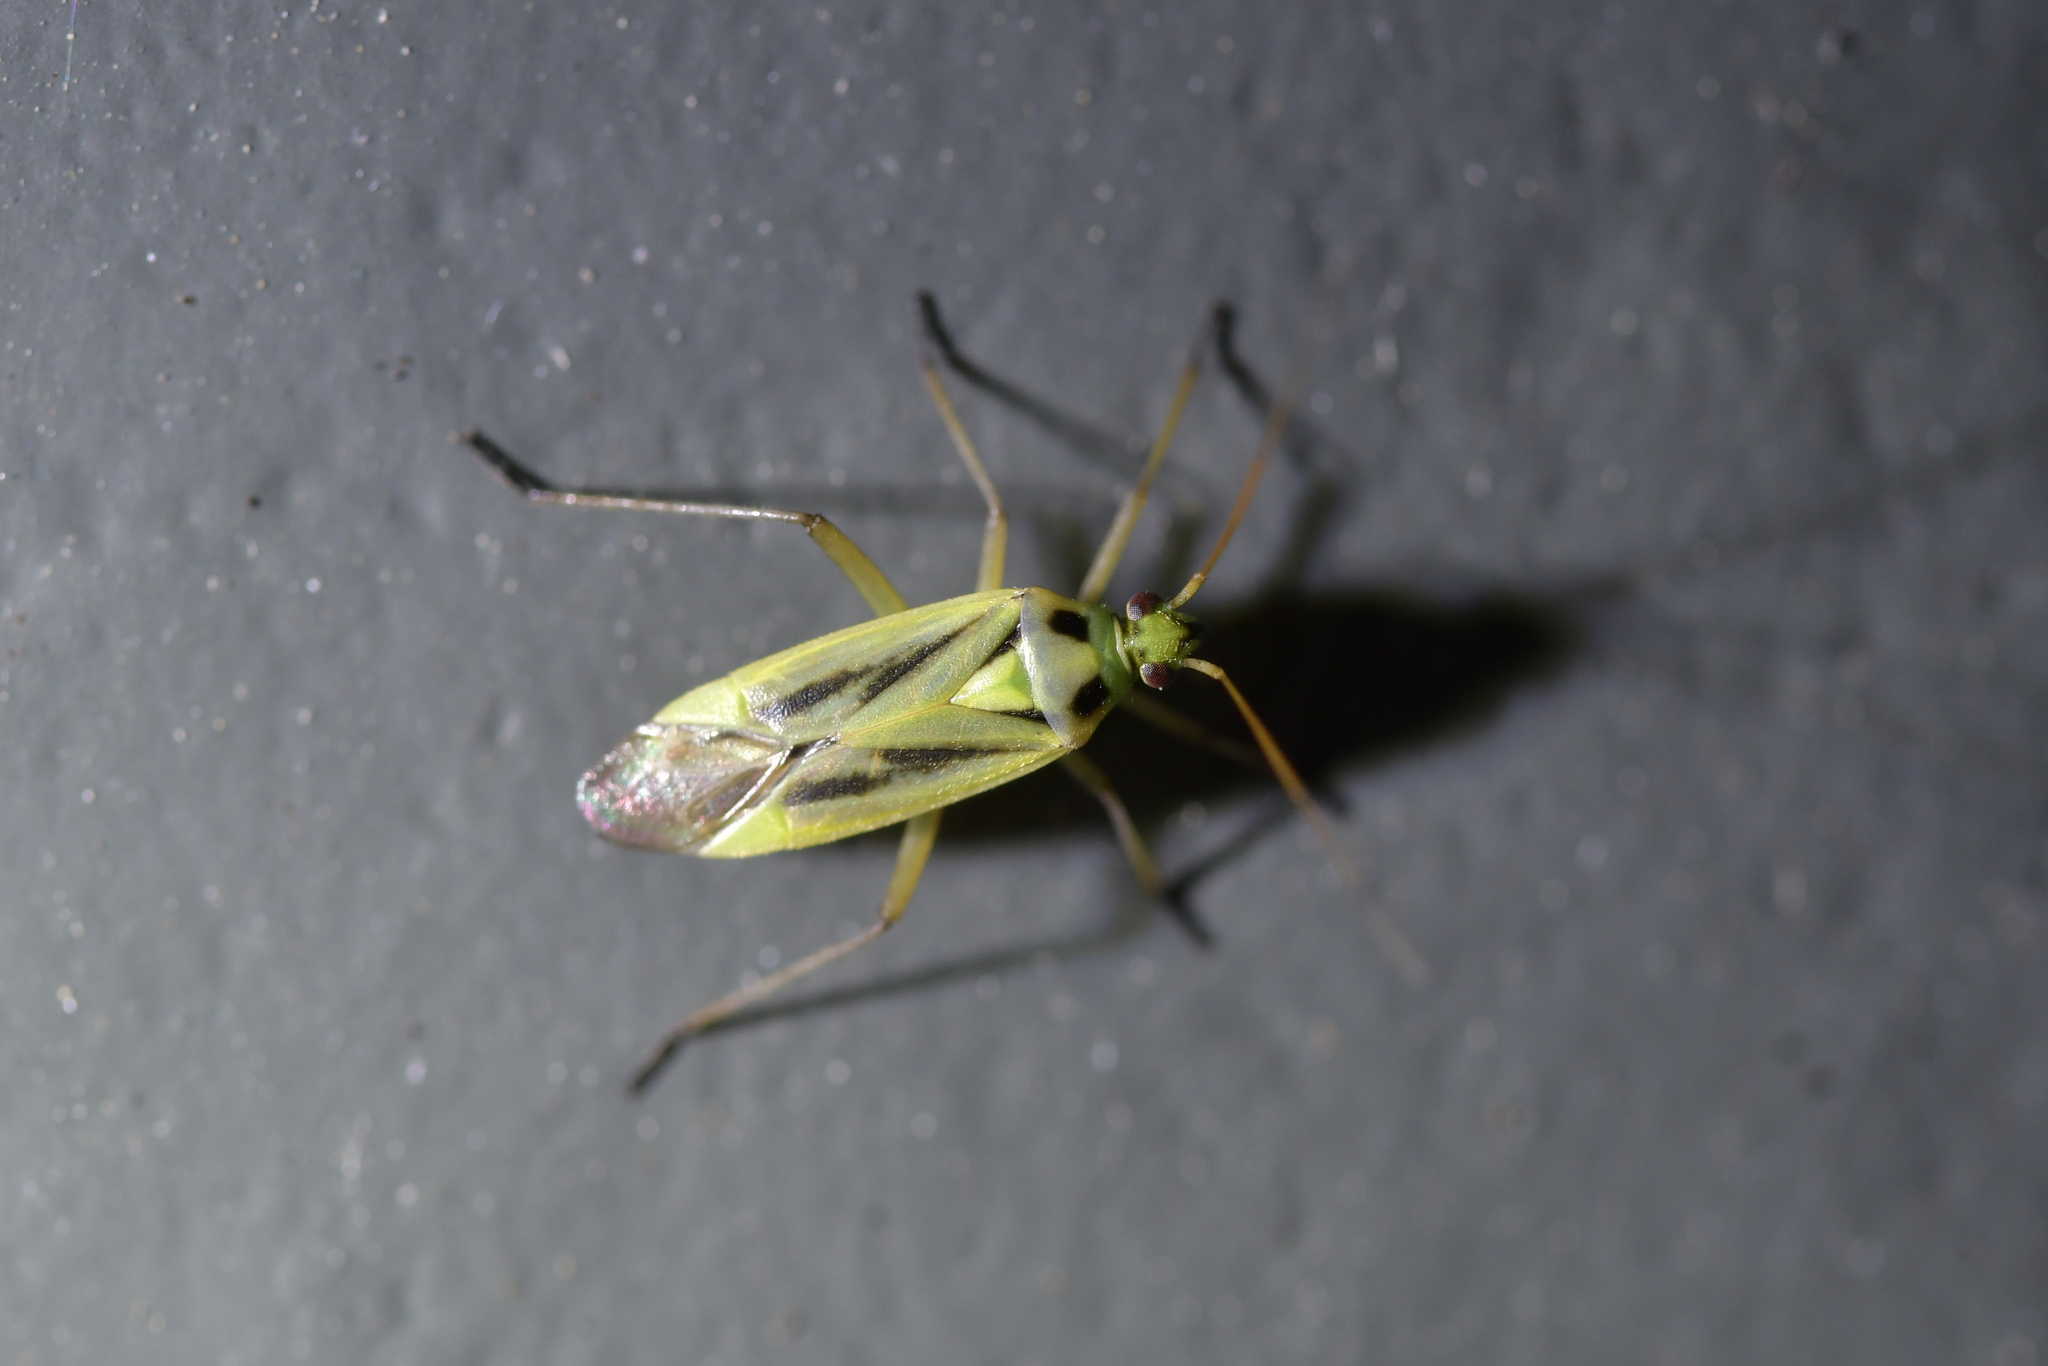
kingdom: Animalia
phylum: Arthropoda
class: Insecta
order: Hemiptera
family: Miridae
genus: Stenotus
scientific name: Stenotus binotatus
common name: Plant bug
